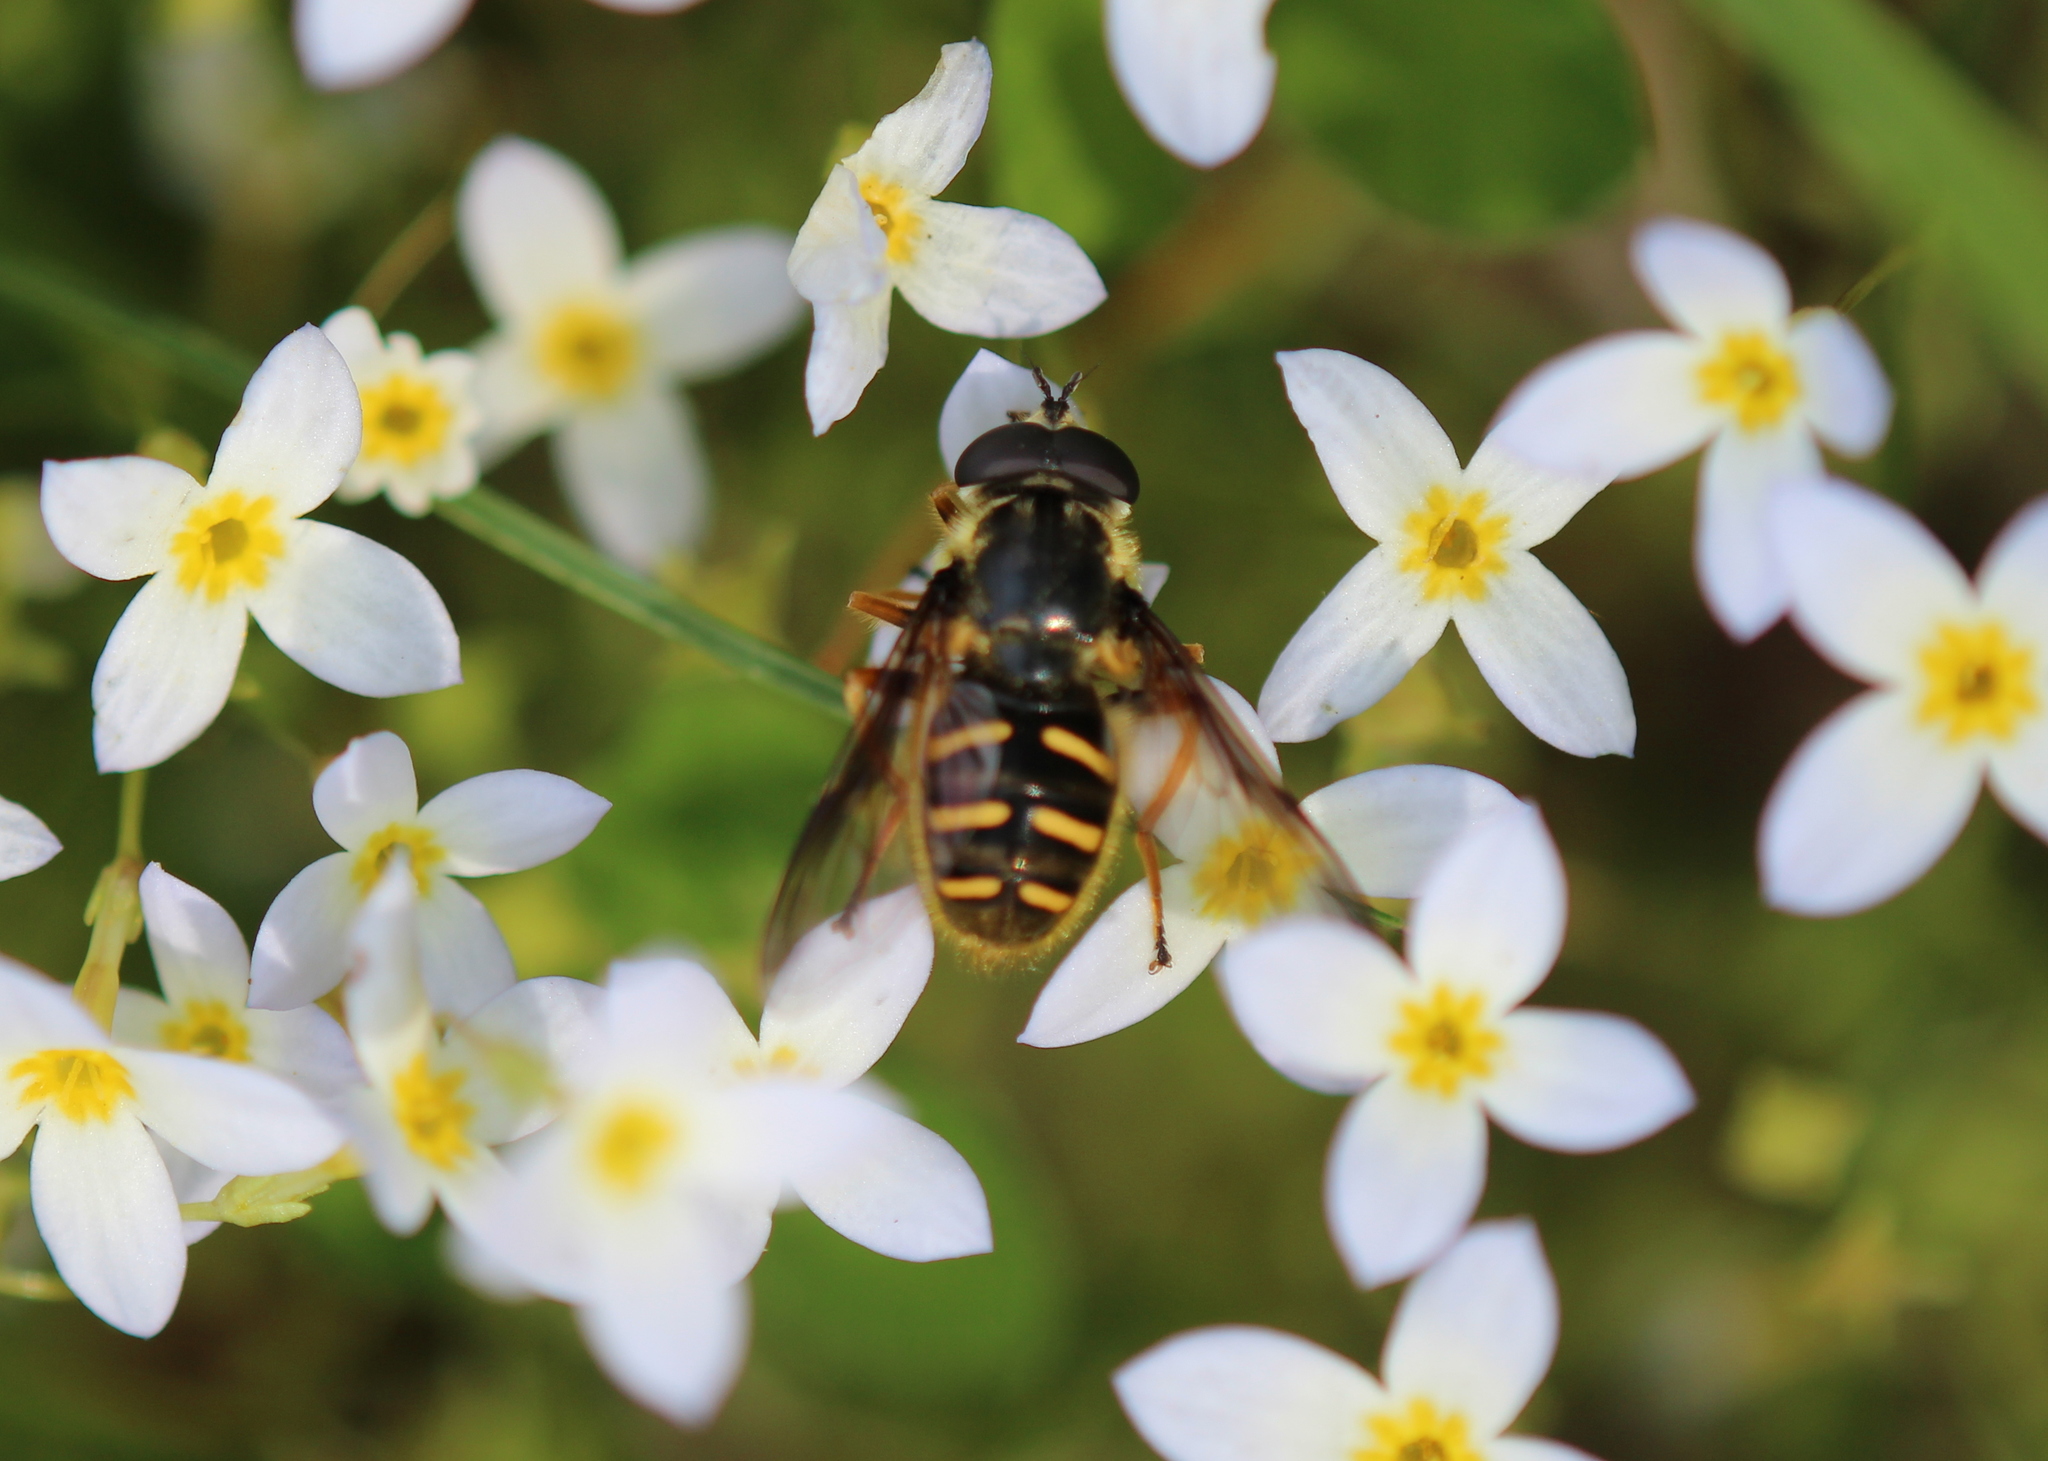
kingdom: Animalia
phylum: Arthropoda
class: Insecta
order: Diptera
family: Syrphidae
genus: Sericomyia
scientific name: Sericomyia chrysotoxoides
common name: Oblique-banded pond fly
